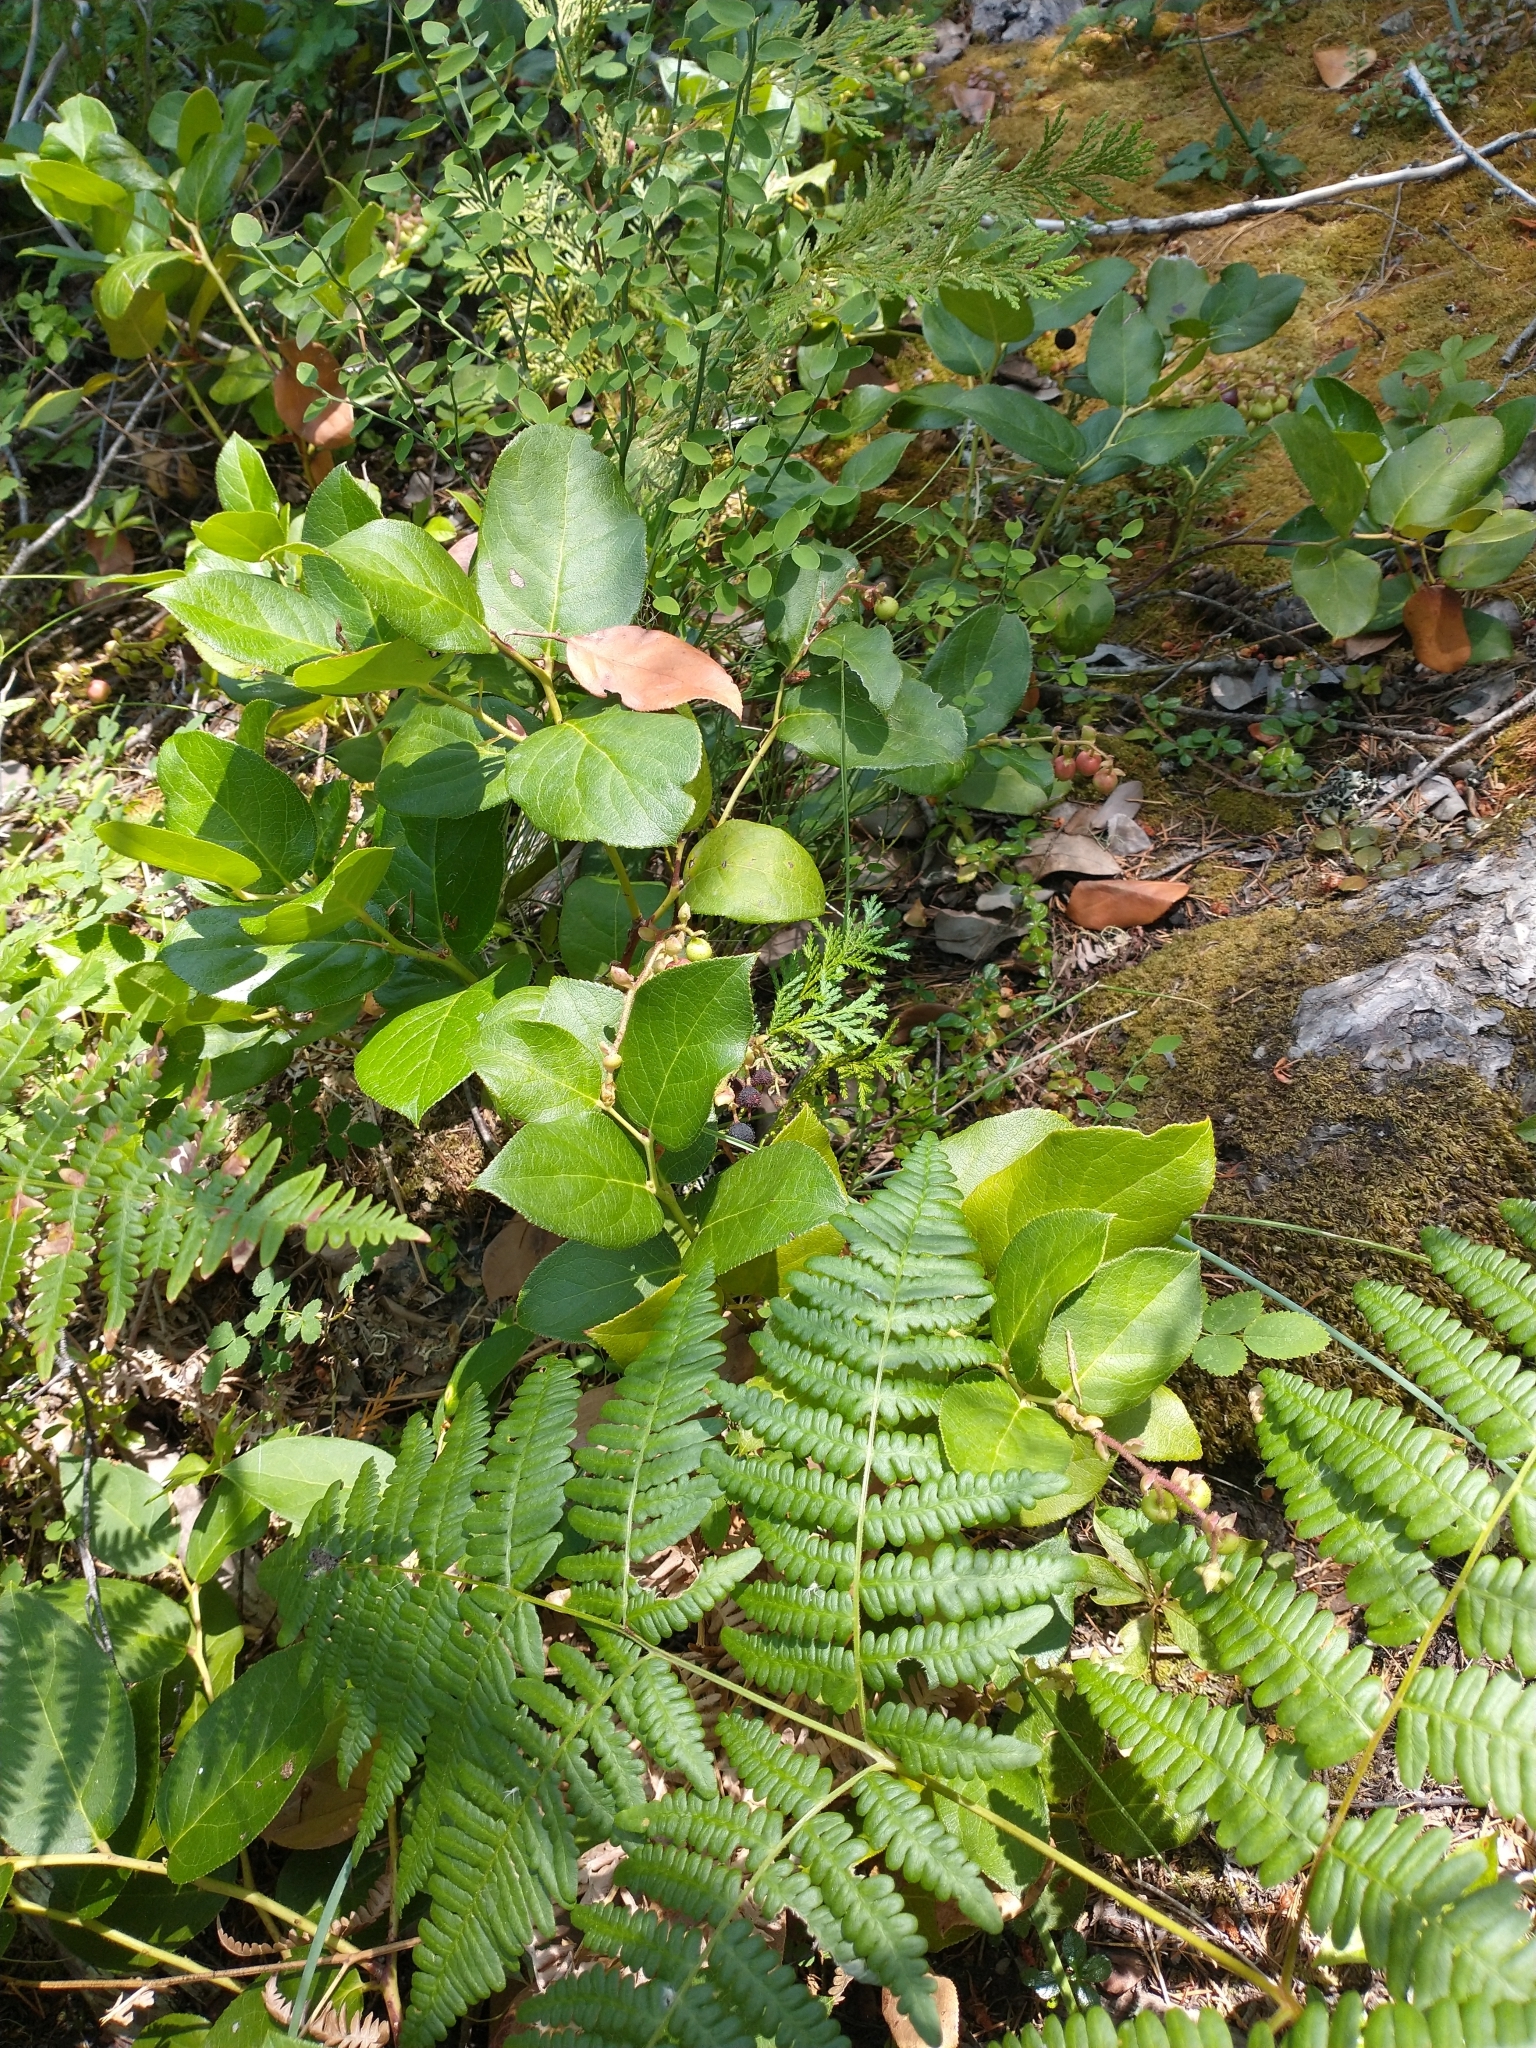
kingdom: Plantae
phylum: Tracheophyta
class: Polypodiopsida
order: Polypodiales
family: Dennstaedtiaceae
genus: Pteridium
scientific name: Pteridium aquilinum
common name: Bracken
